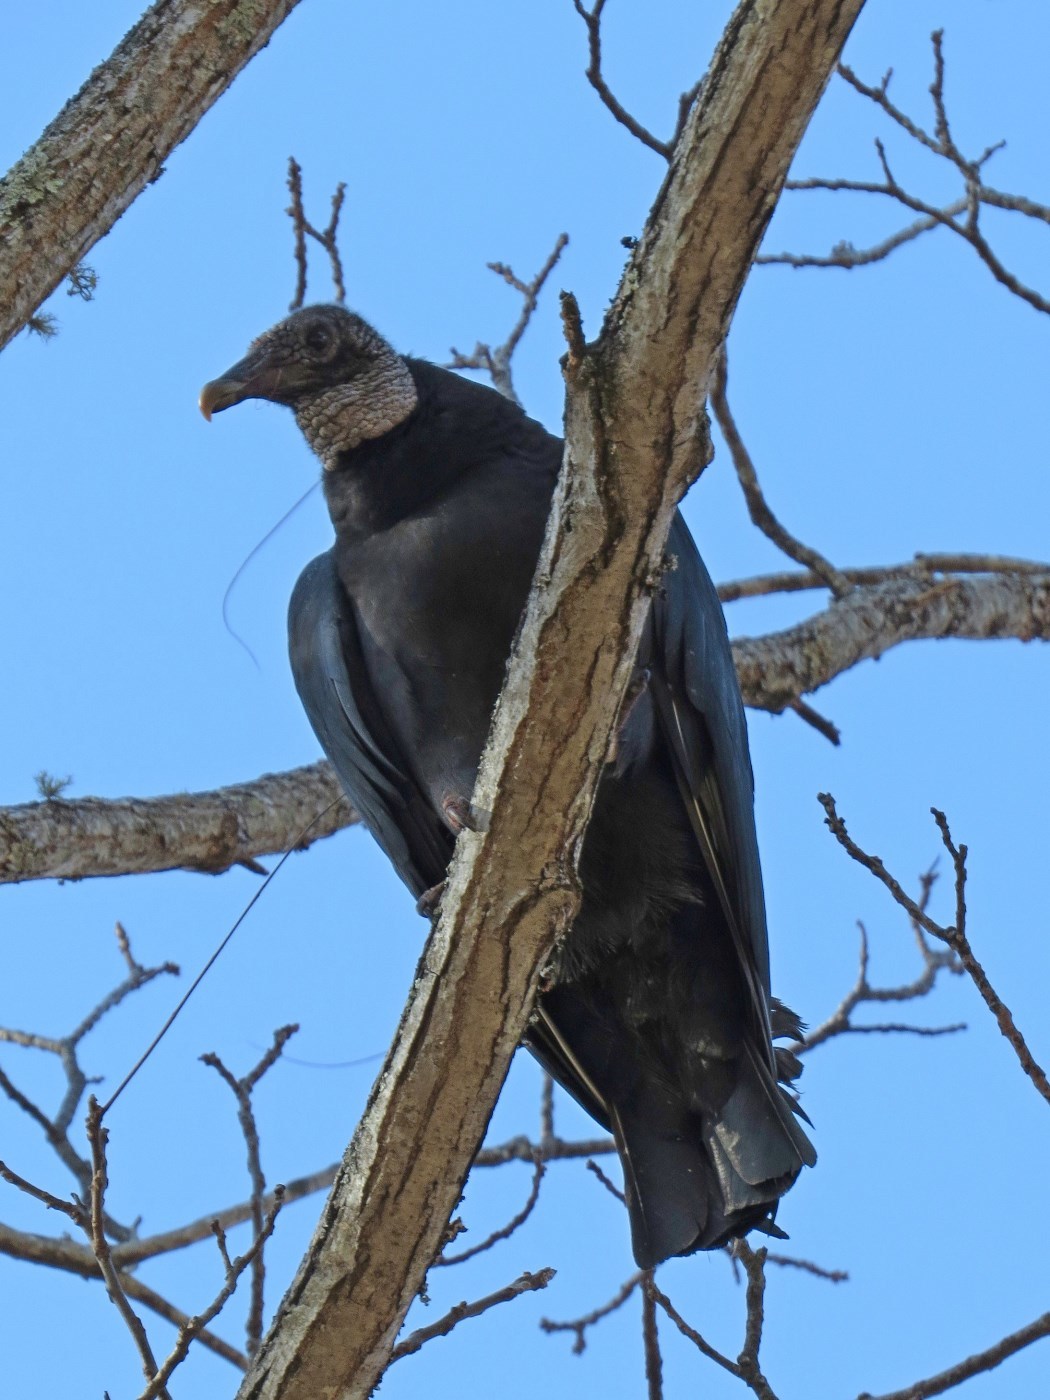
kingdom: Animalia
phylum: Chordata
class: Aves
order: Accipitriformes
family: Cathartidae
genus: Coragyps
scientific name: Coragyps atratus
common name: Black vulture
